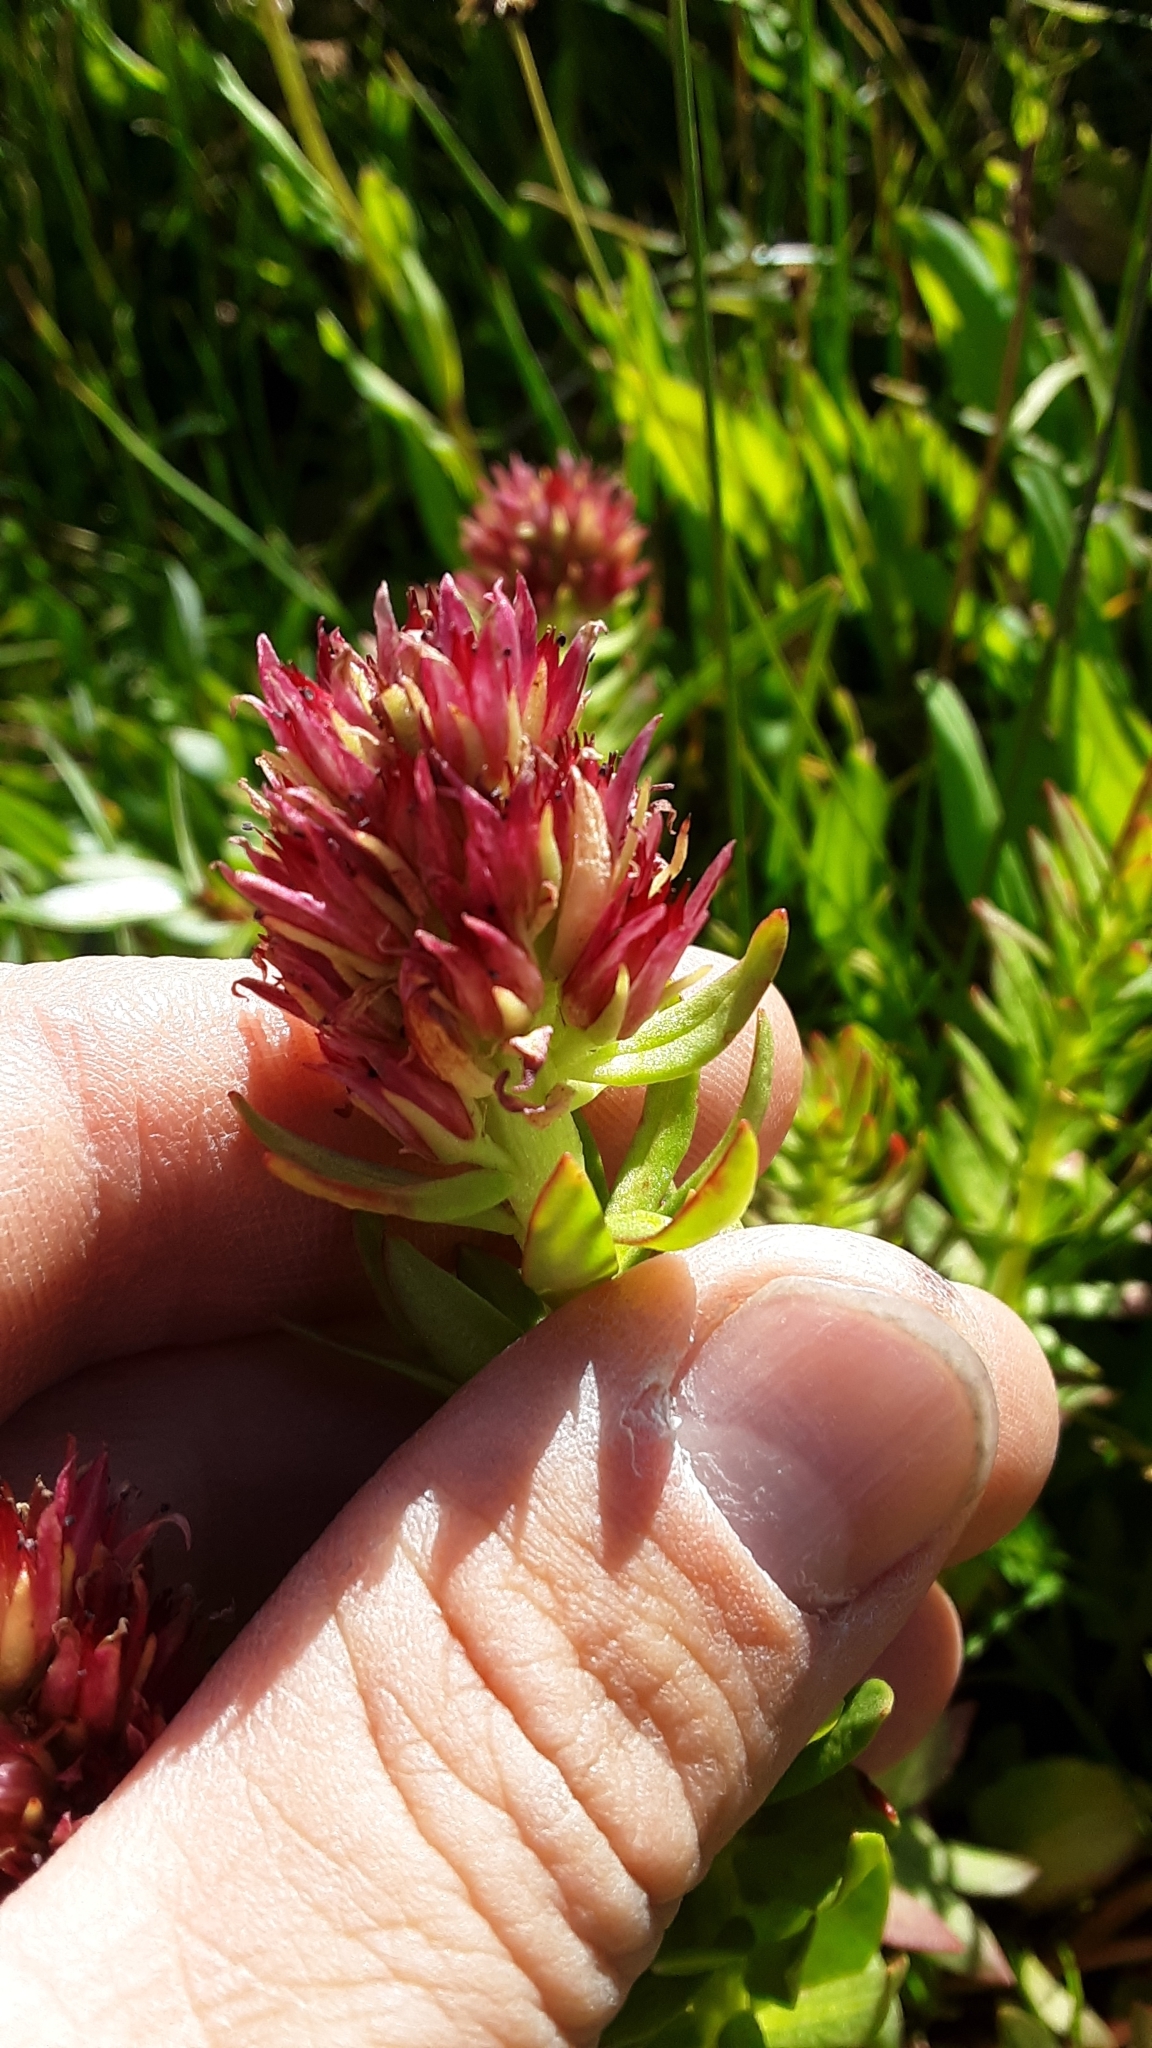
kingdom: Plantae
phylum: Tracheophyta
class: Magnoliopsida
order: Saxifragales
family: Crassulaceae
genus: Rhodiola
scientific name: Rhodiola rhodantha
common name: Red orpine
